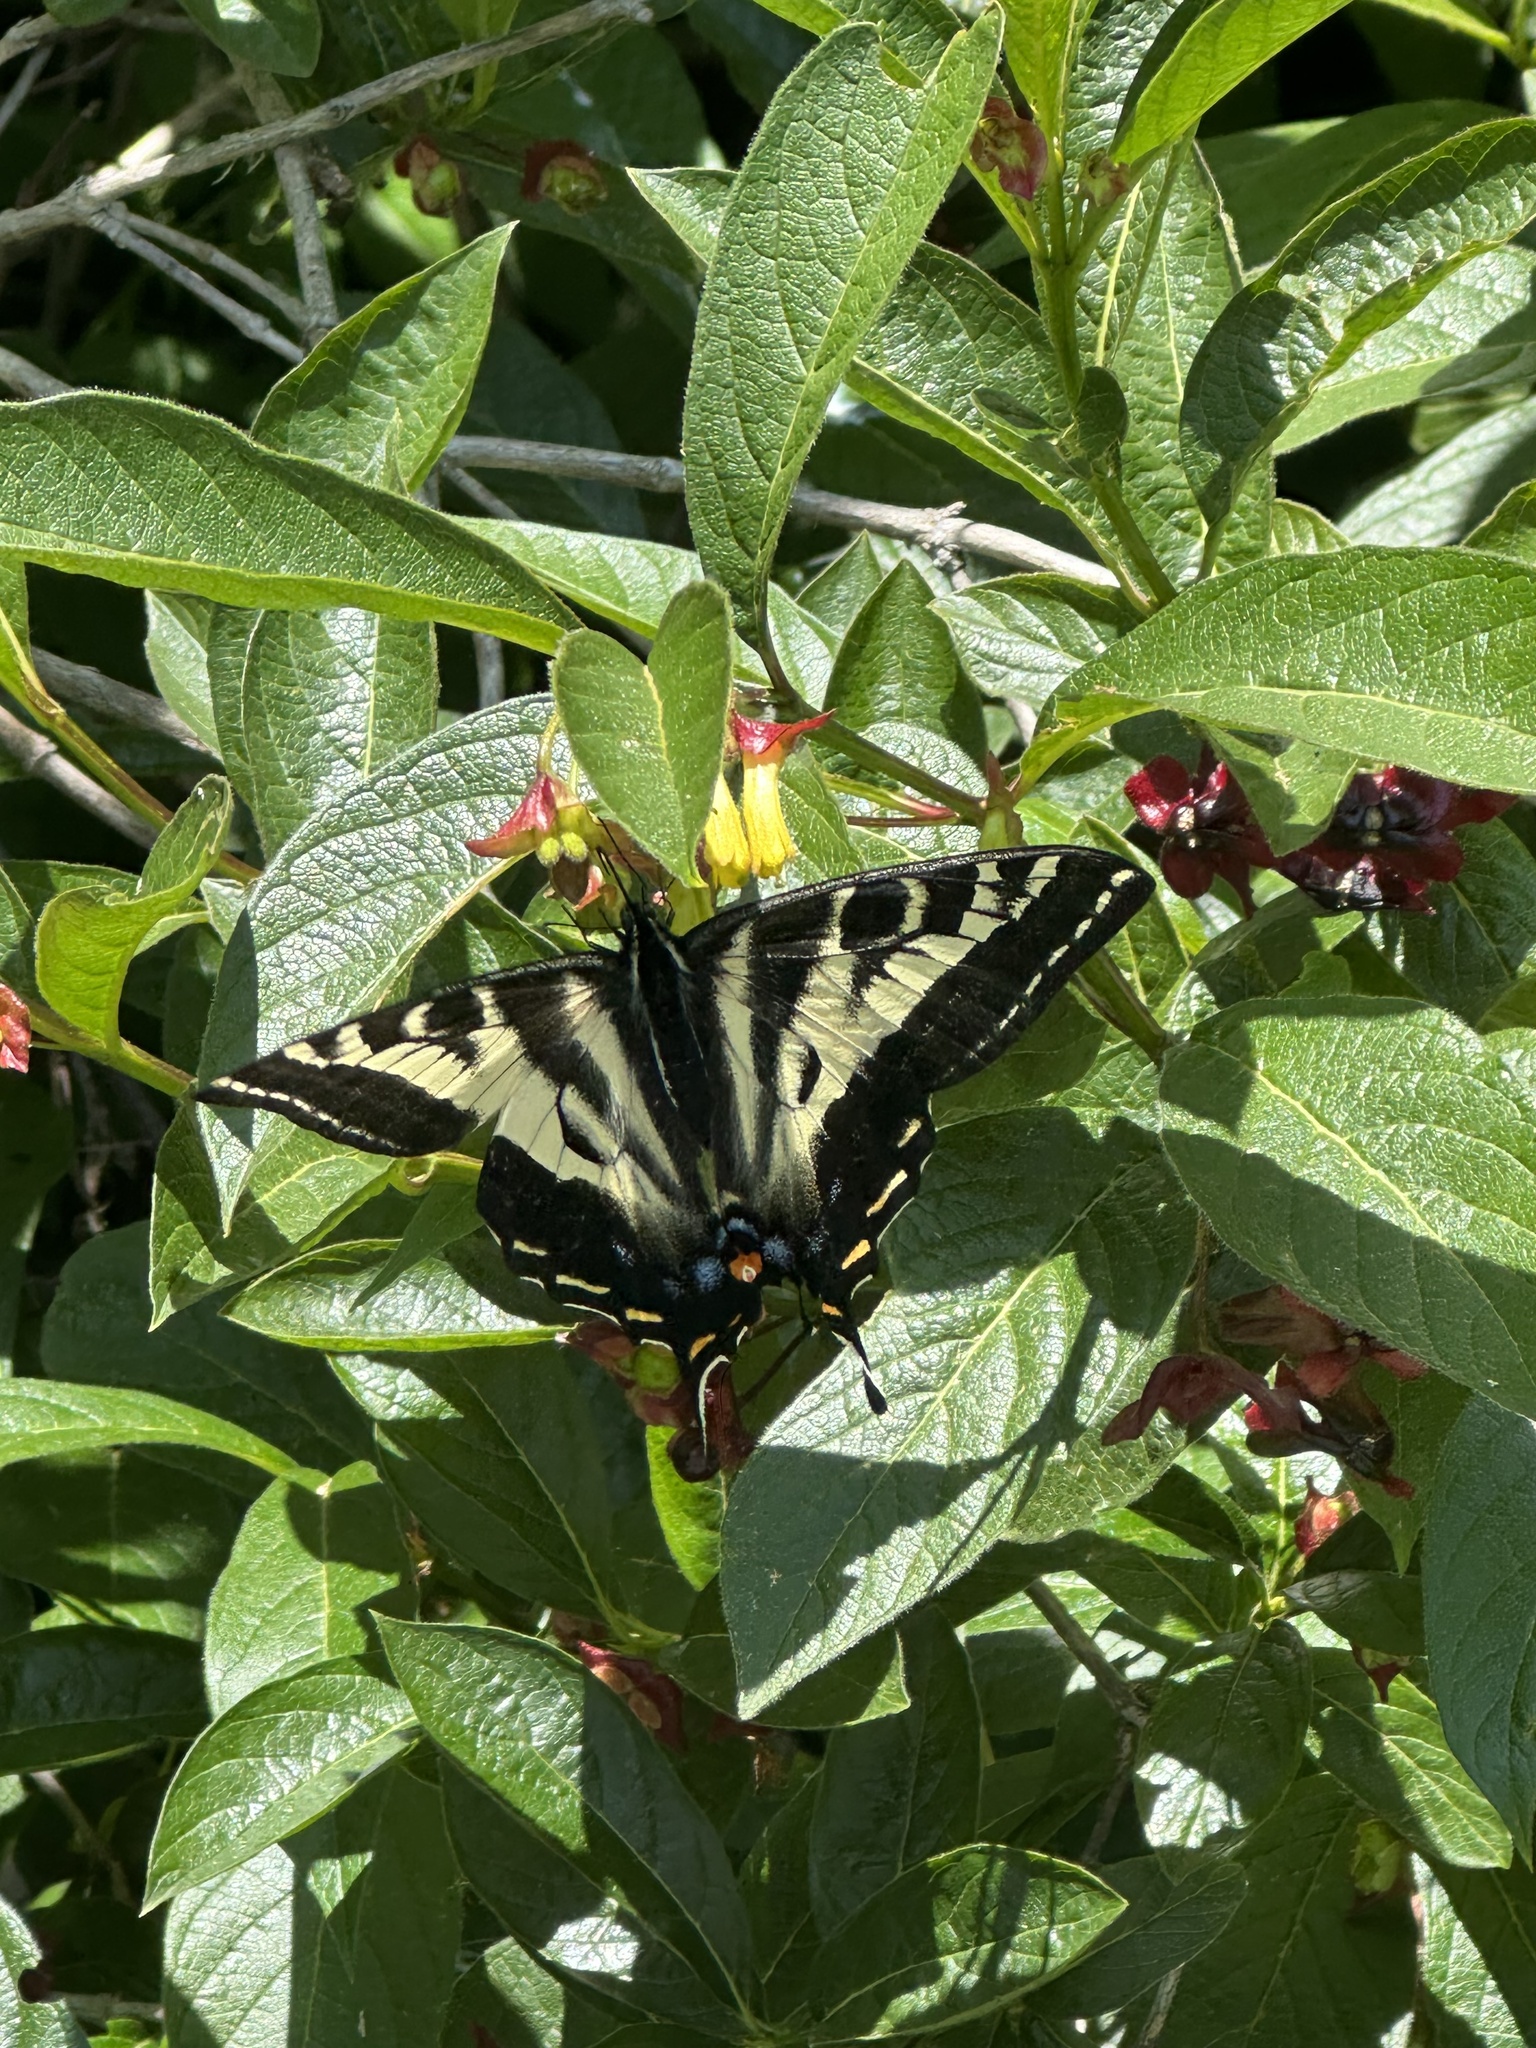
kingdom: Animalia
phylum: Arthropoda
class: Insecta
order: Lepidoptera
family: Papilionidae
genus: Papilio
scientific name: Papilio eurymedon
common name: Pale tiger swallowtail
